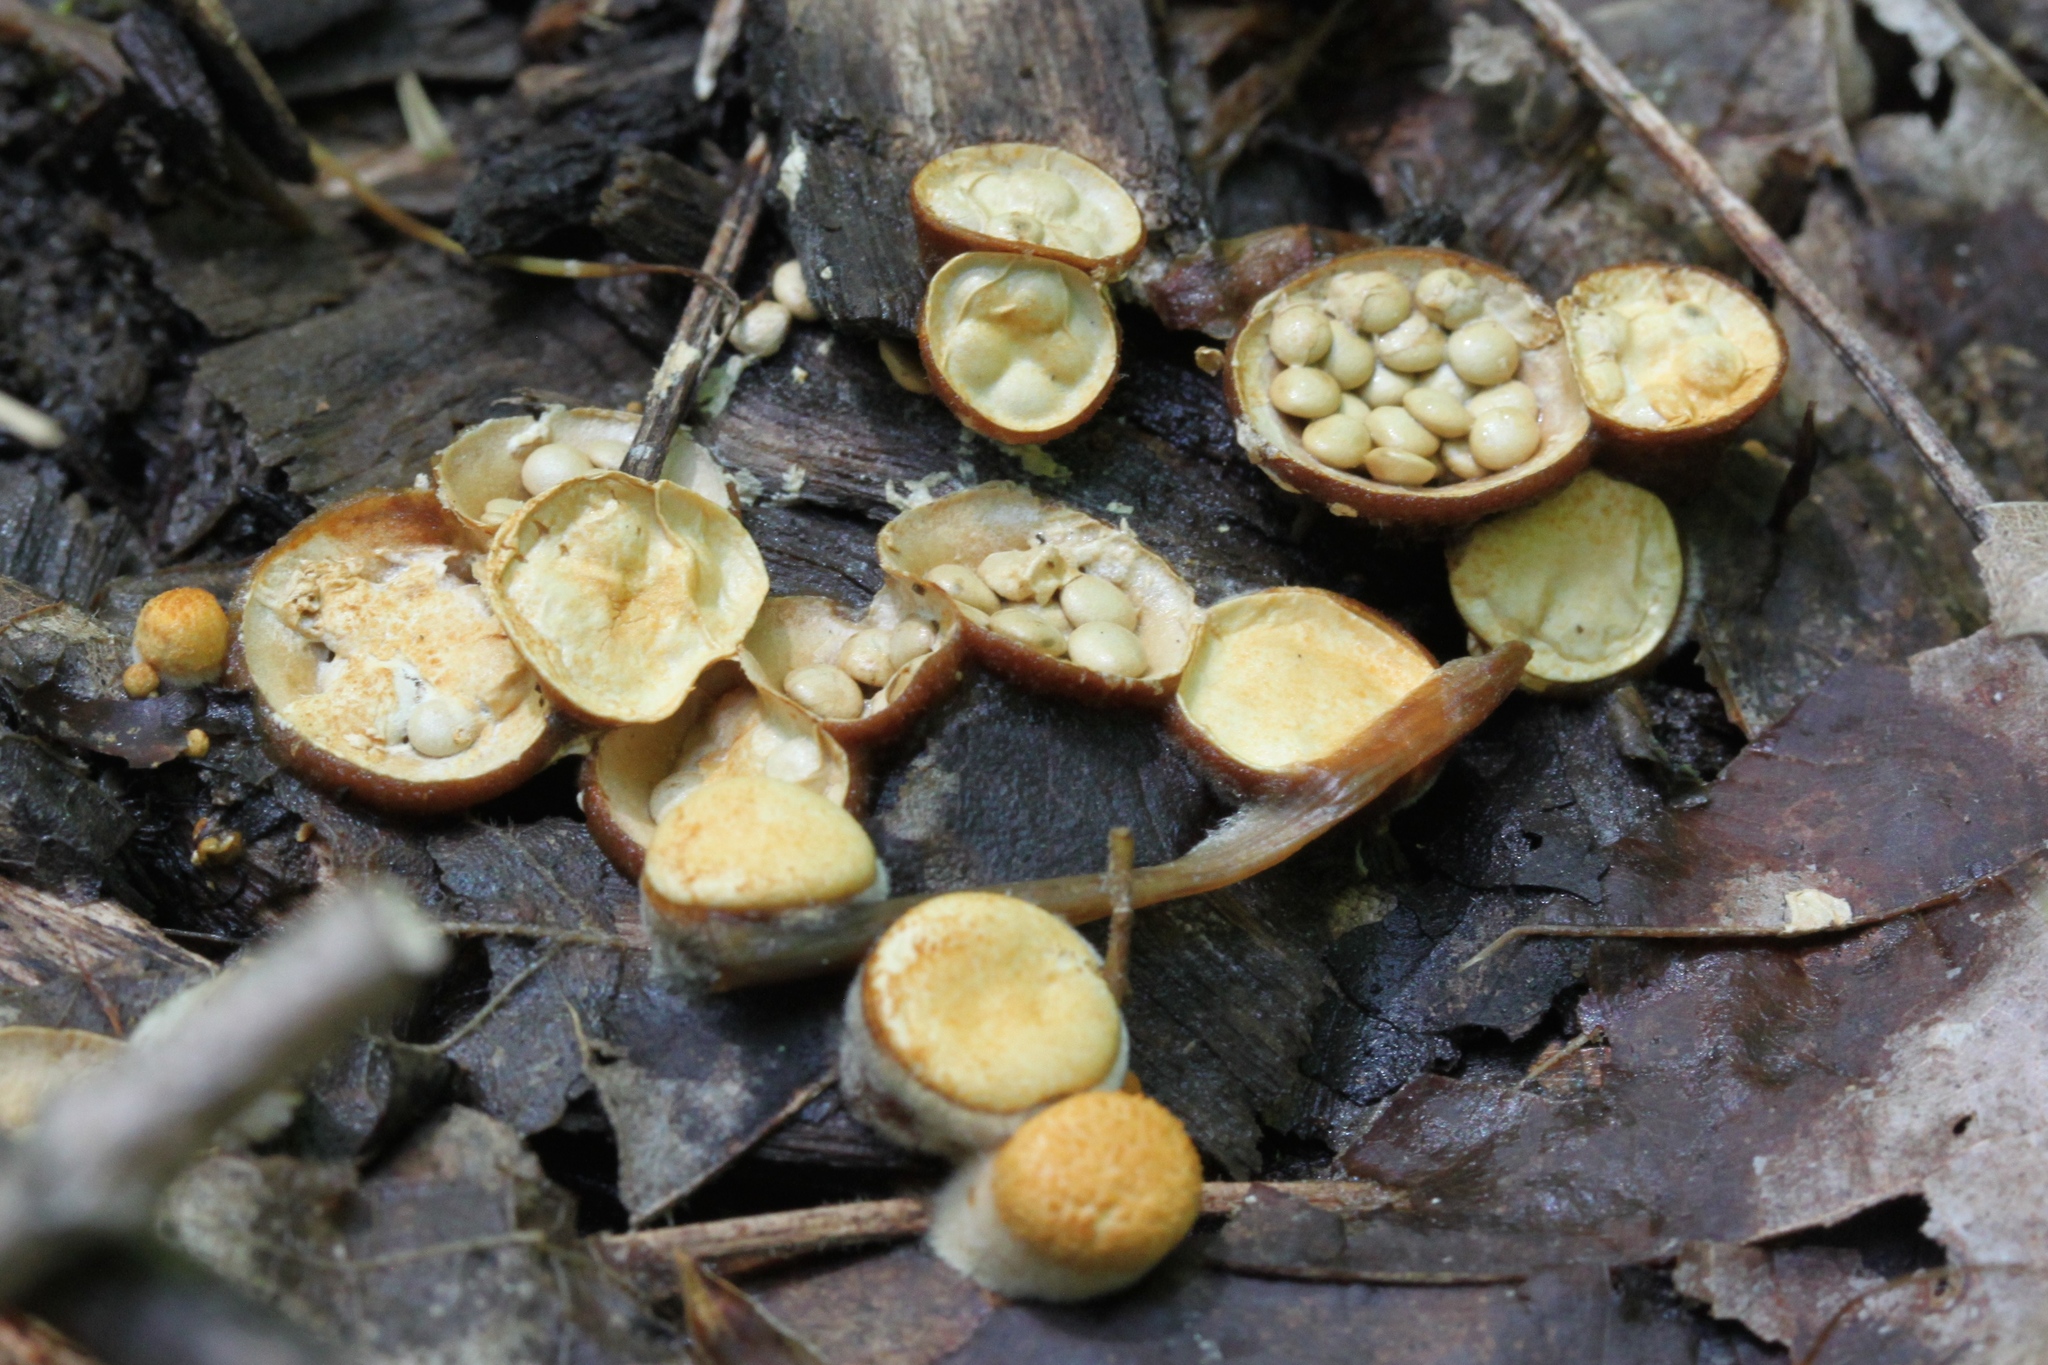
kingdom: Fungi
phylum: Basidiomycota
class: Agaricomycetes
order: Agaricales
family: Nidulariaceae
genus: Crucibulum
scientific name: Crucibulum laeve
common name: Common bird's nest
